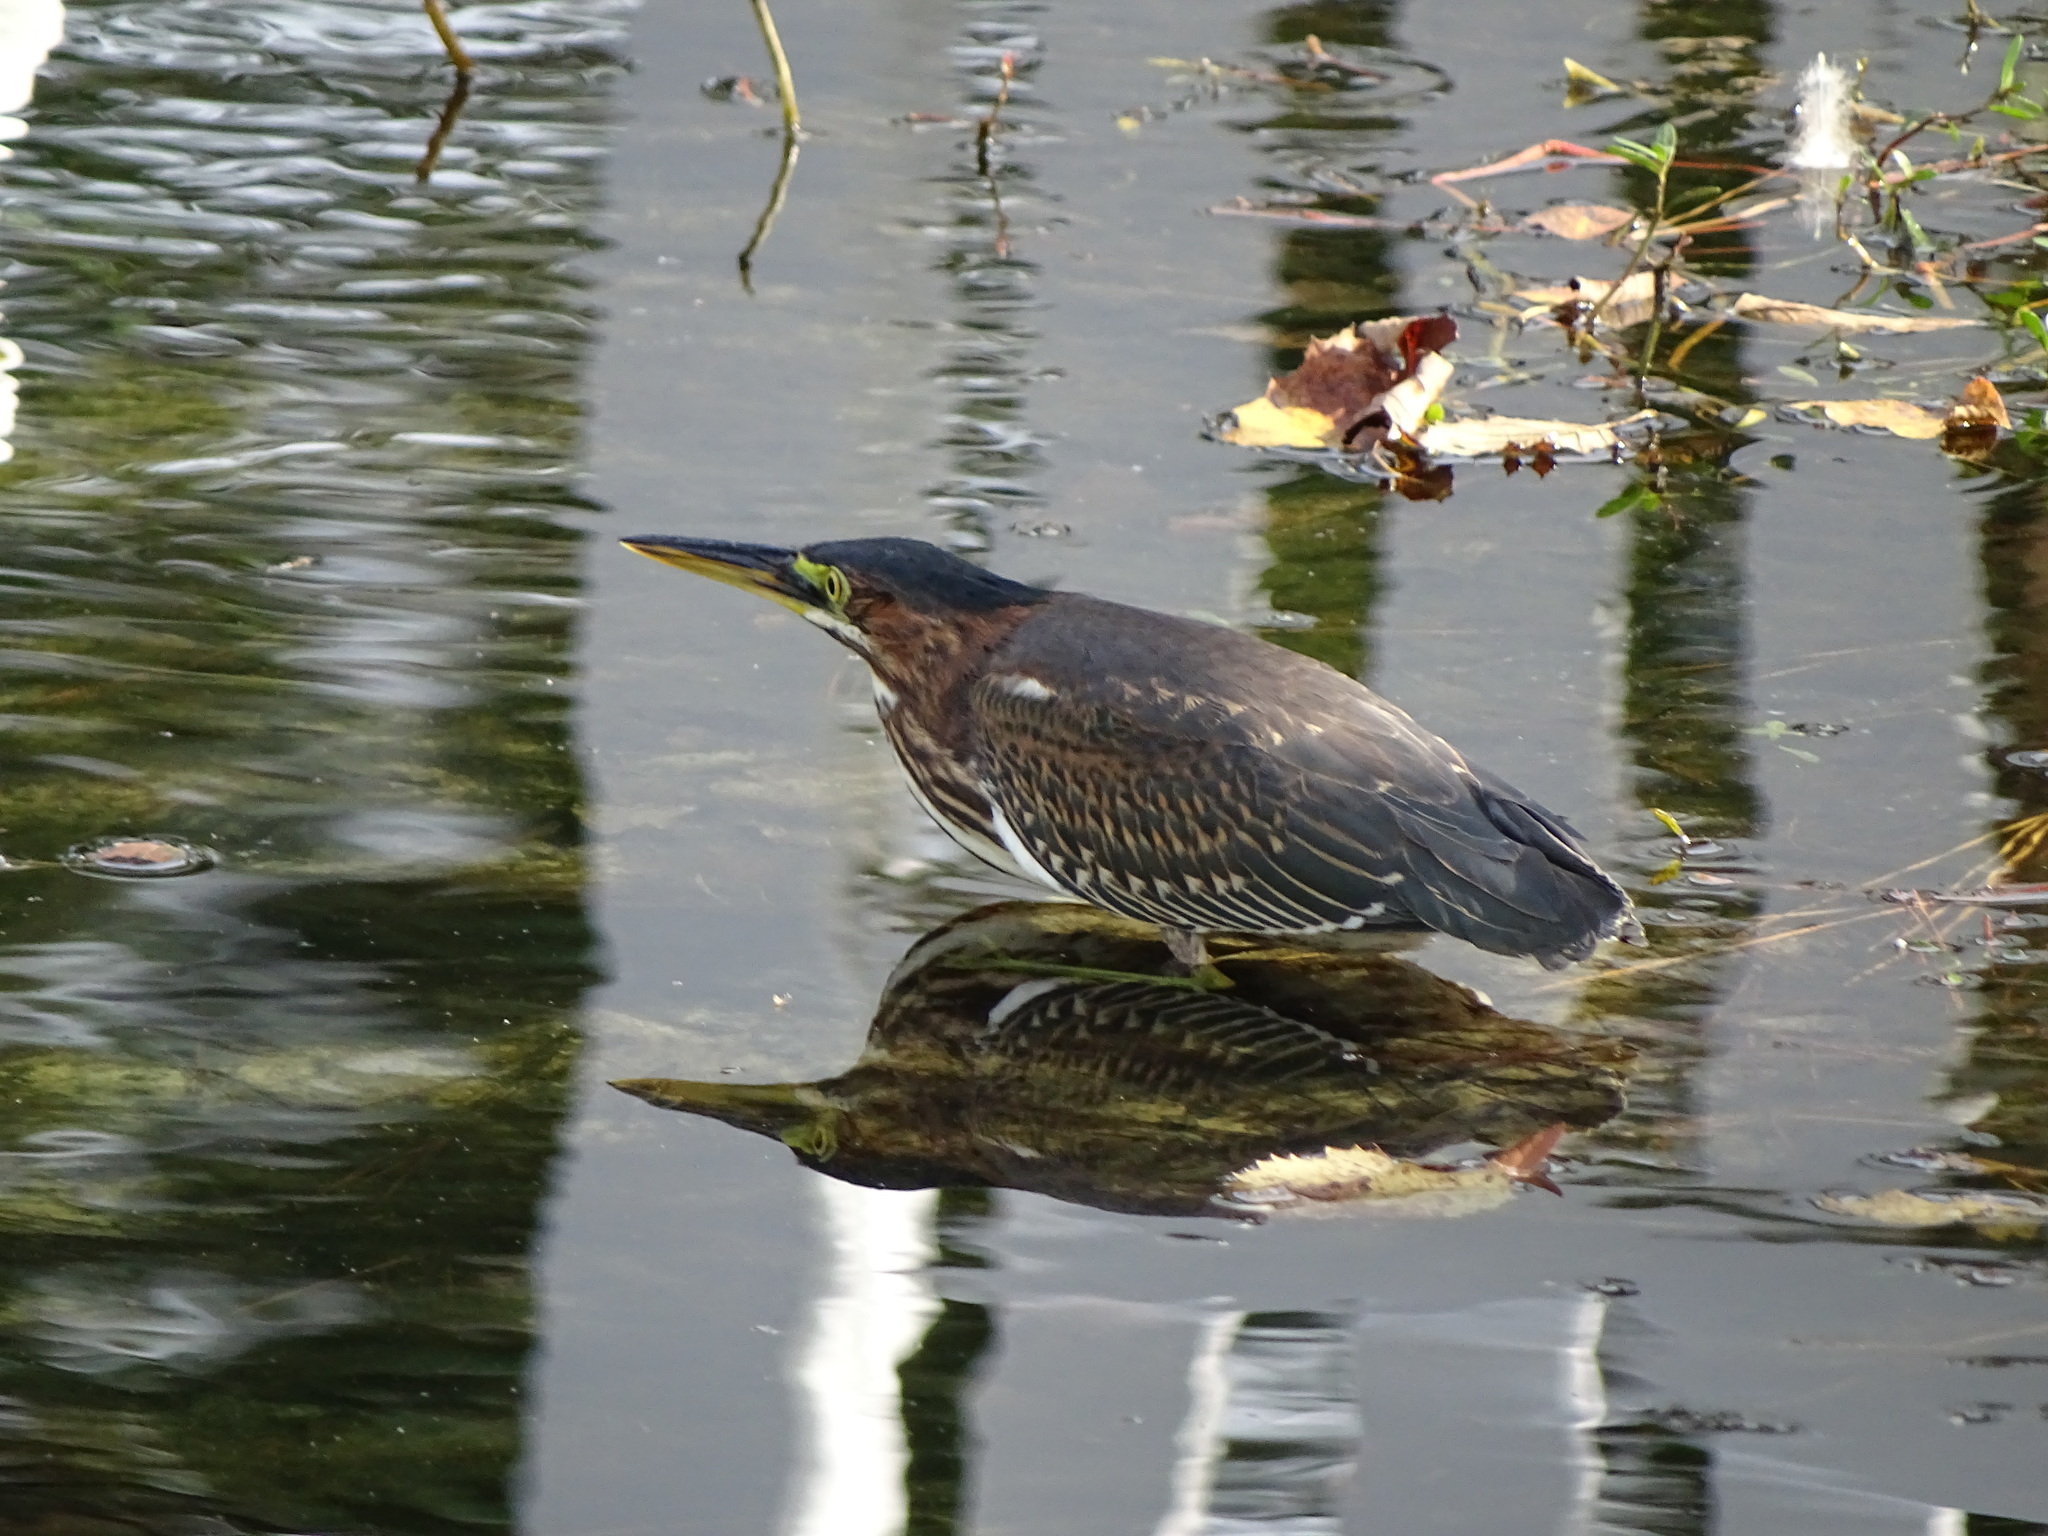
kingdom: Animalia
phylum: Chordata
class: Aves
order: Pelecaniformes
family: Ardeidae
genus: Butorides
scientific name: Butorides virescens
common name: Green heron
